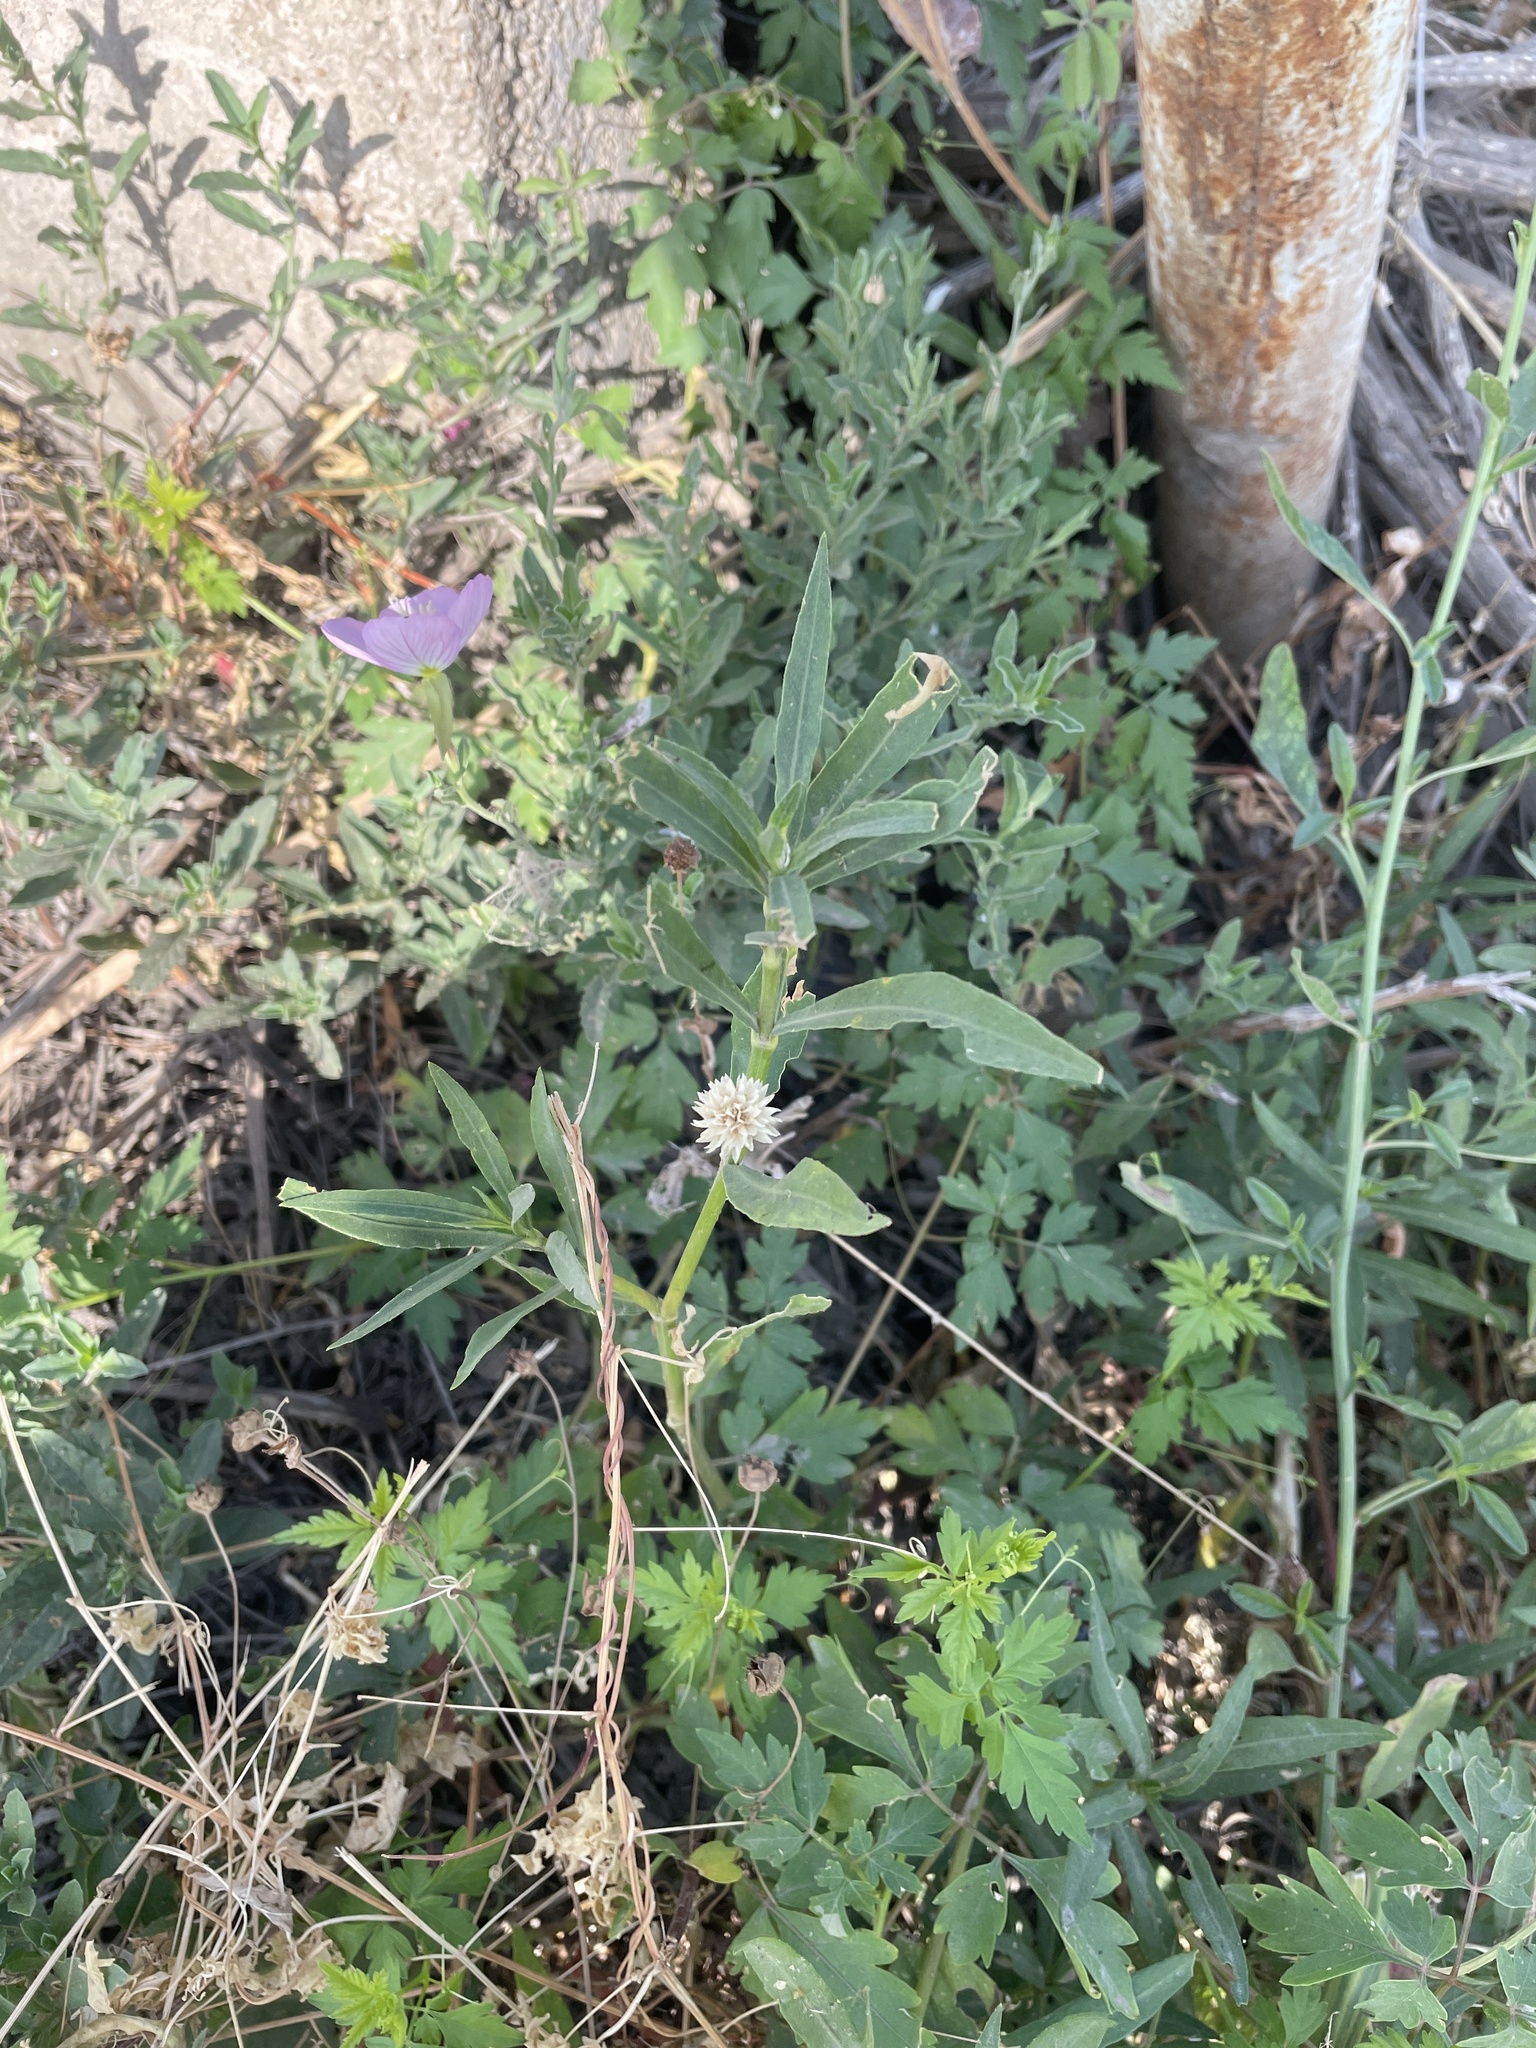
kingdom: Plantae
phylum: Tracheophyta
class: Magnoliopsida
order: Caryophyllales
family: Amaranthaceae
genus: Alternanthera
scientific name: Alternanthera philoxeroides
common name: Alligatorweed
